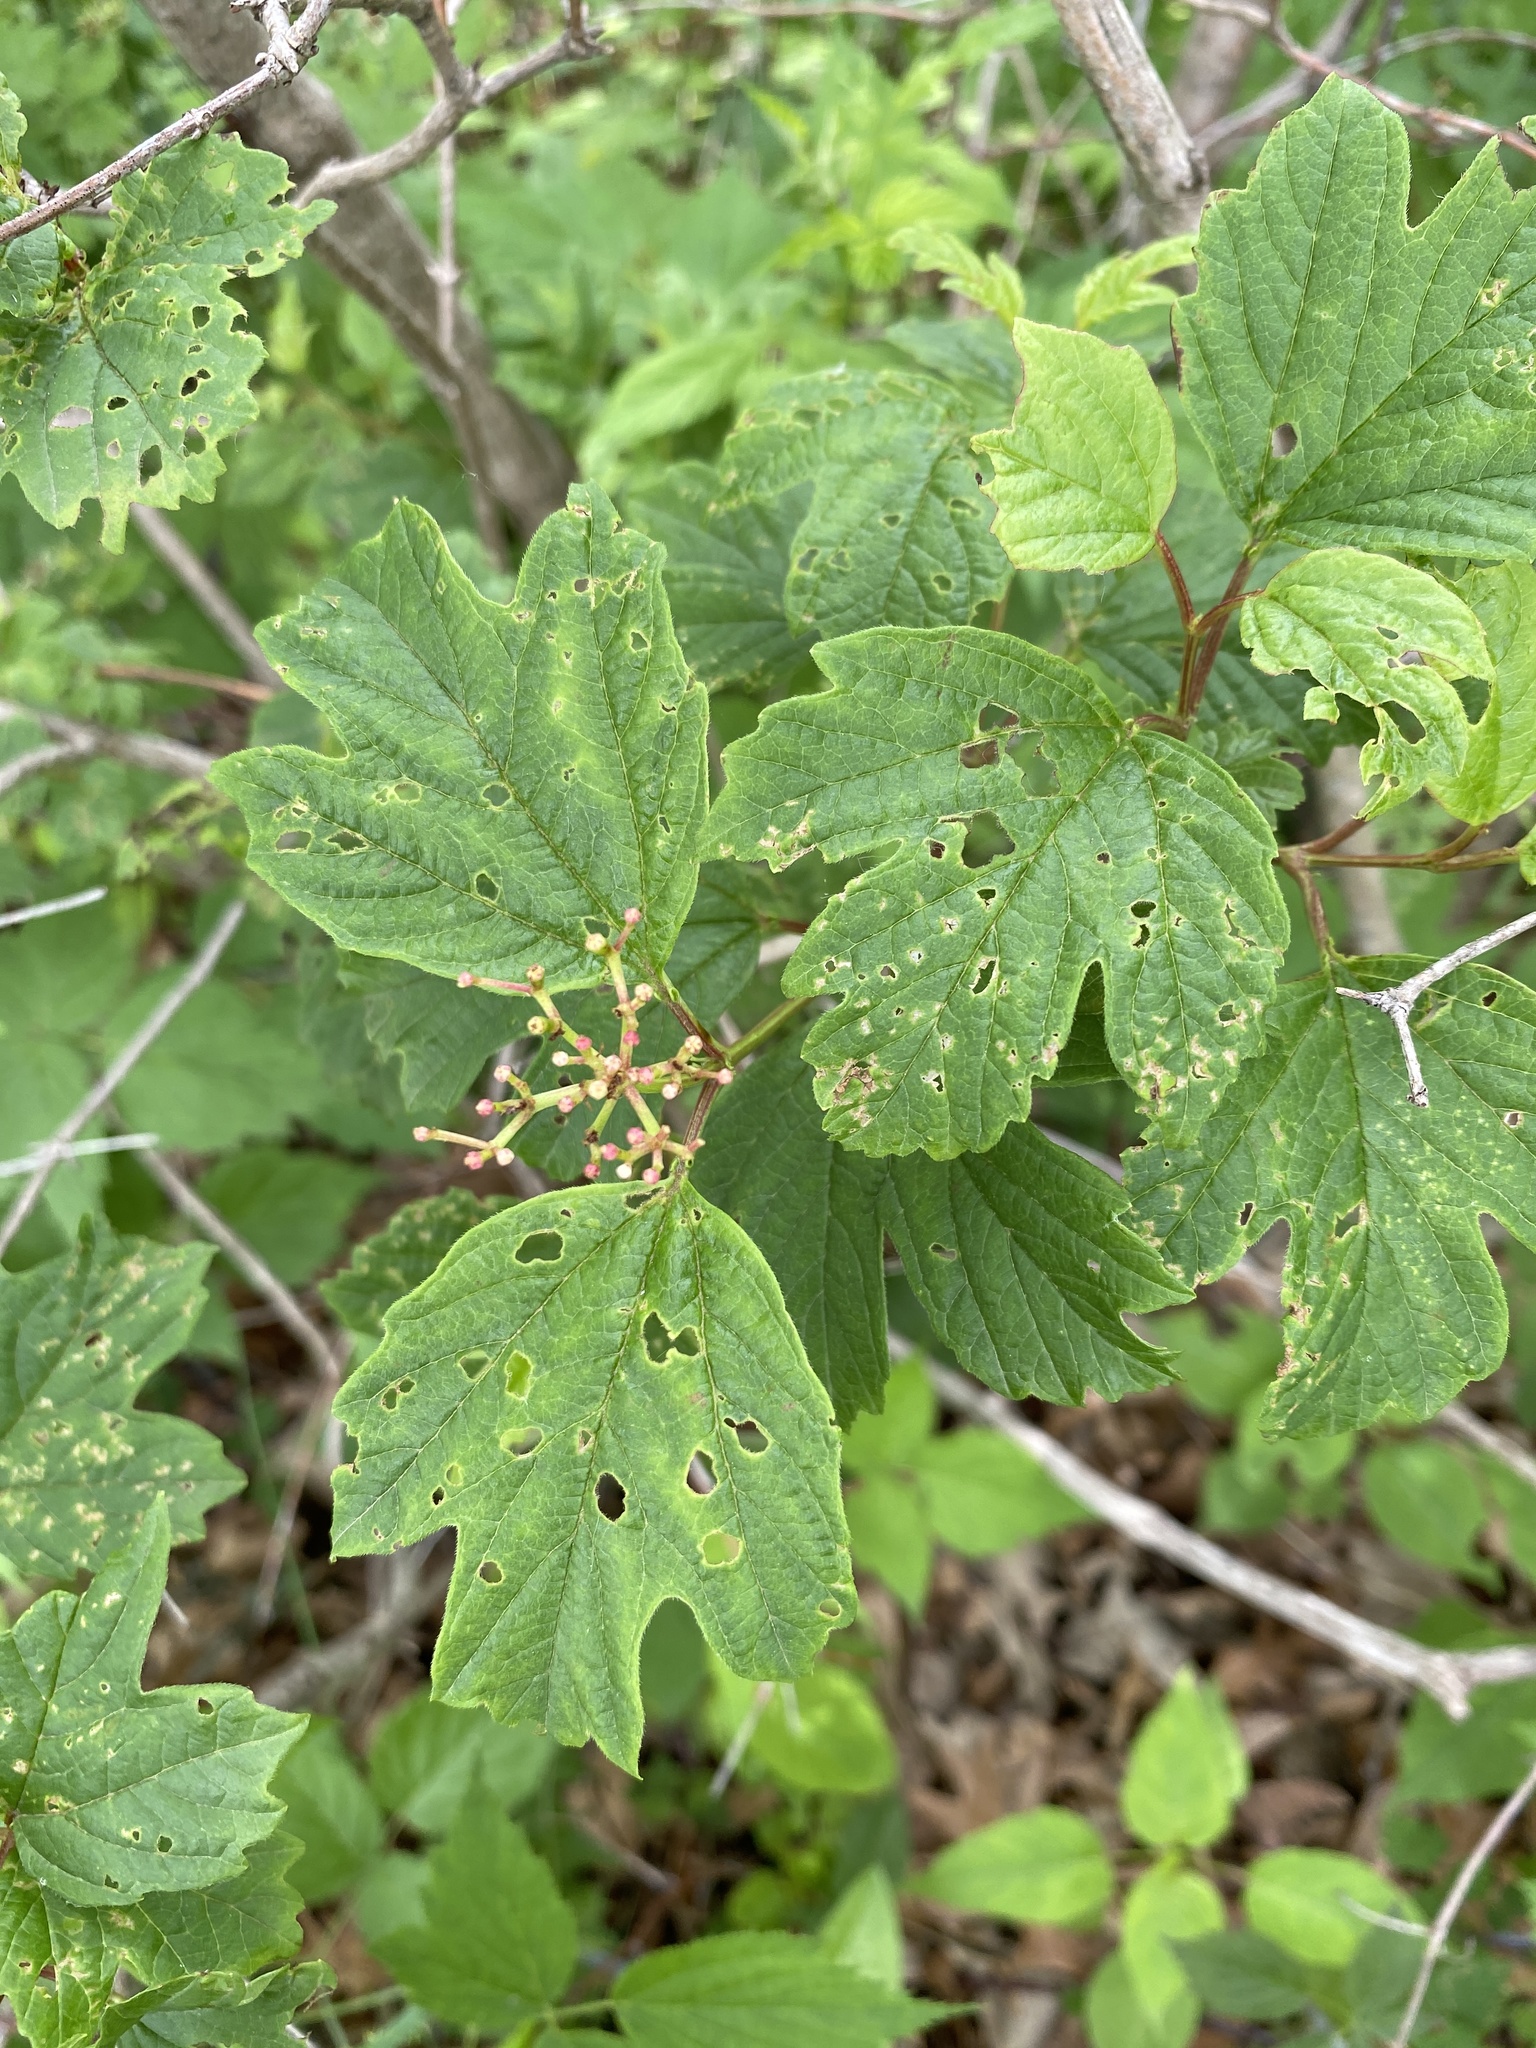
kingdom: Plantae
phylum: Tracheophyta
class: Magnoliopsida
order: Dipsacales
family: Viburnaceae
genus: Viburnum
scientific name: Viburnum opulus
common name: Guelder-rose
